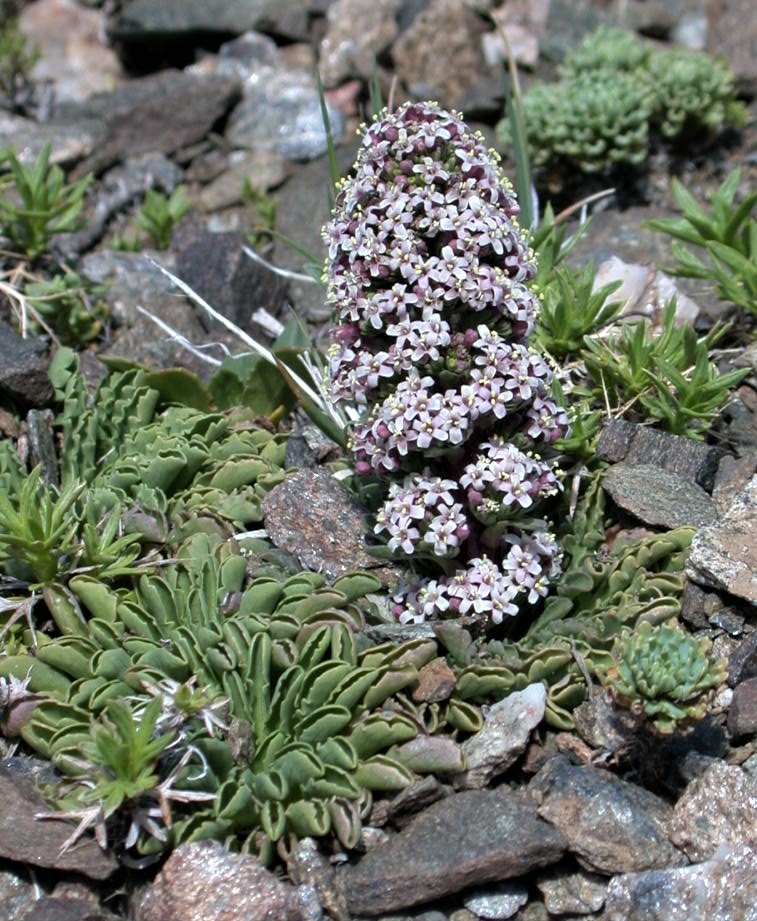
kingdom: Plantae
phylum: Tracheophyta
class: Magnoliopsida
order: Dipsacales
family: Caprifoliaceae
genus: Valeriana
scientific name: Valeriana moyanoi
